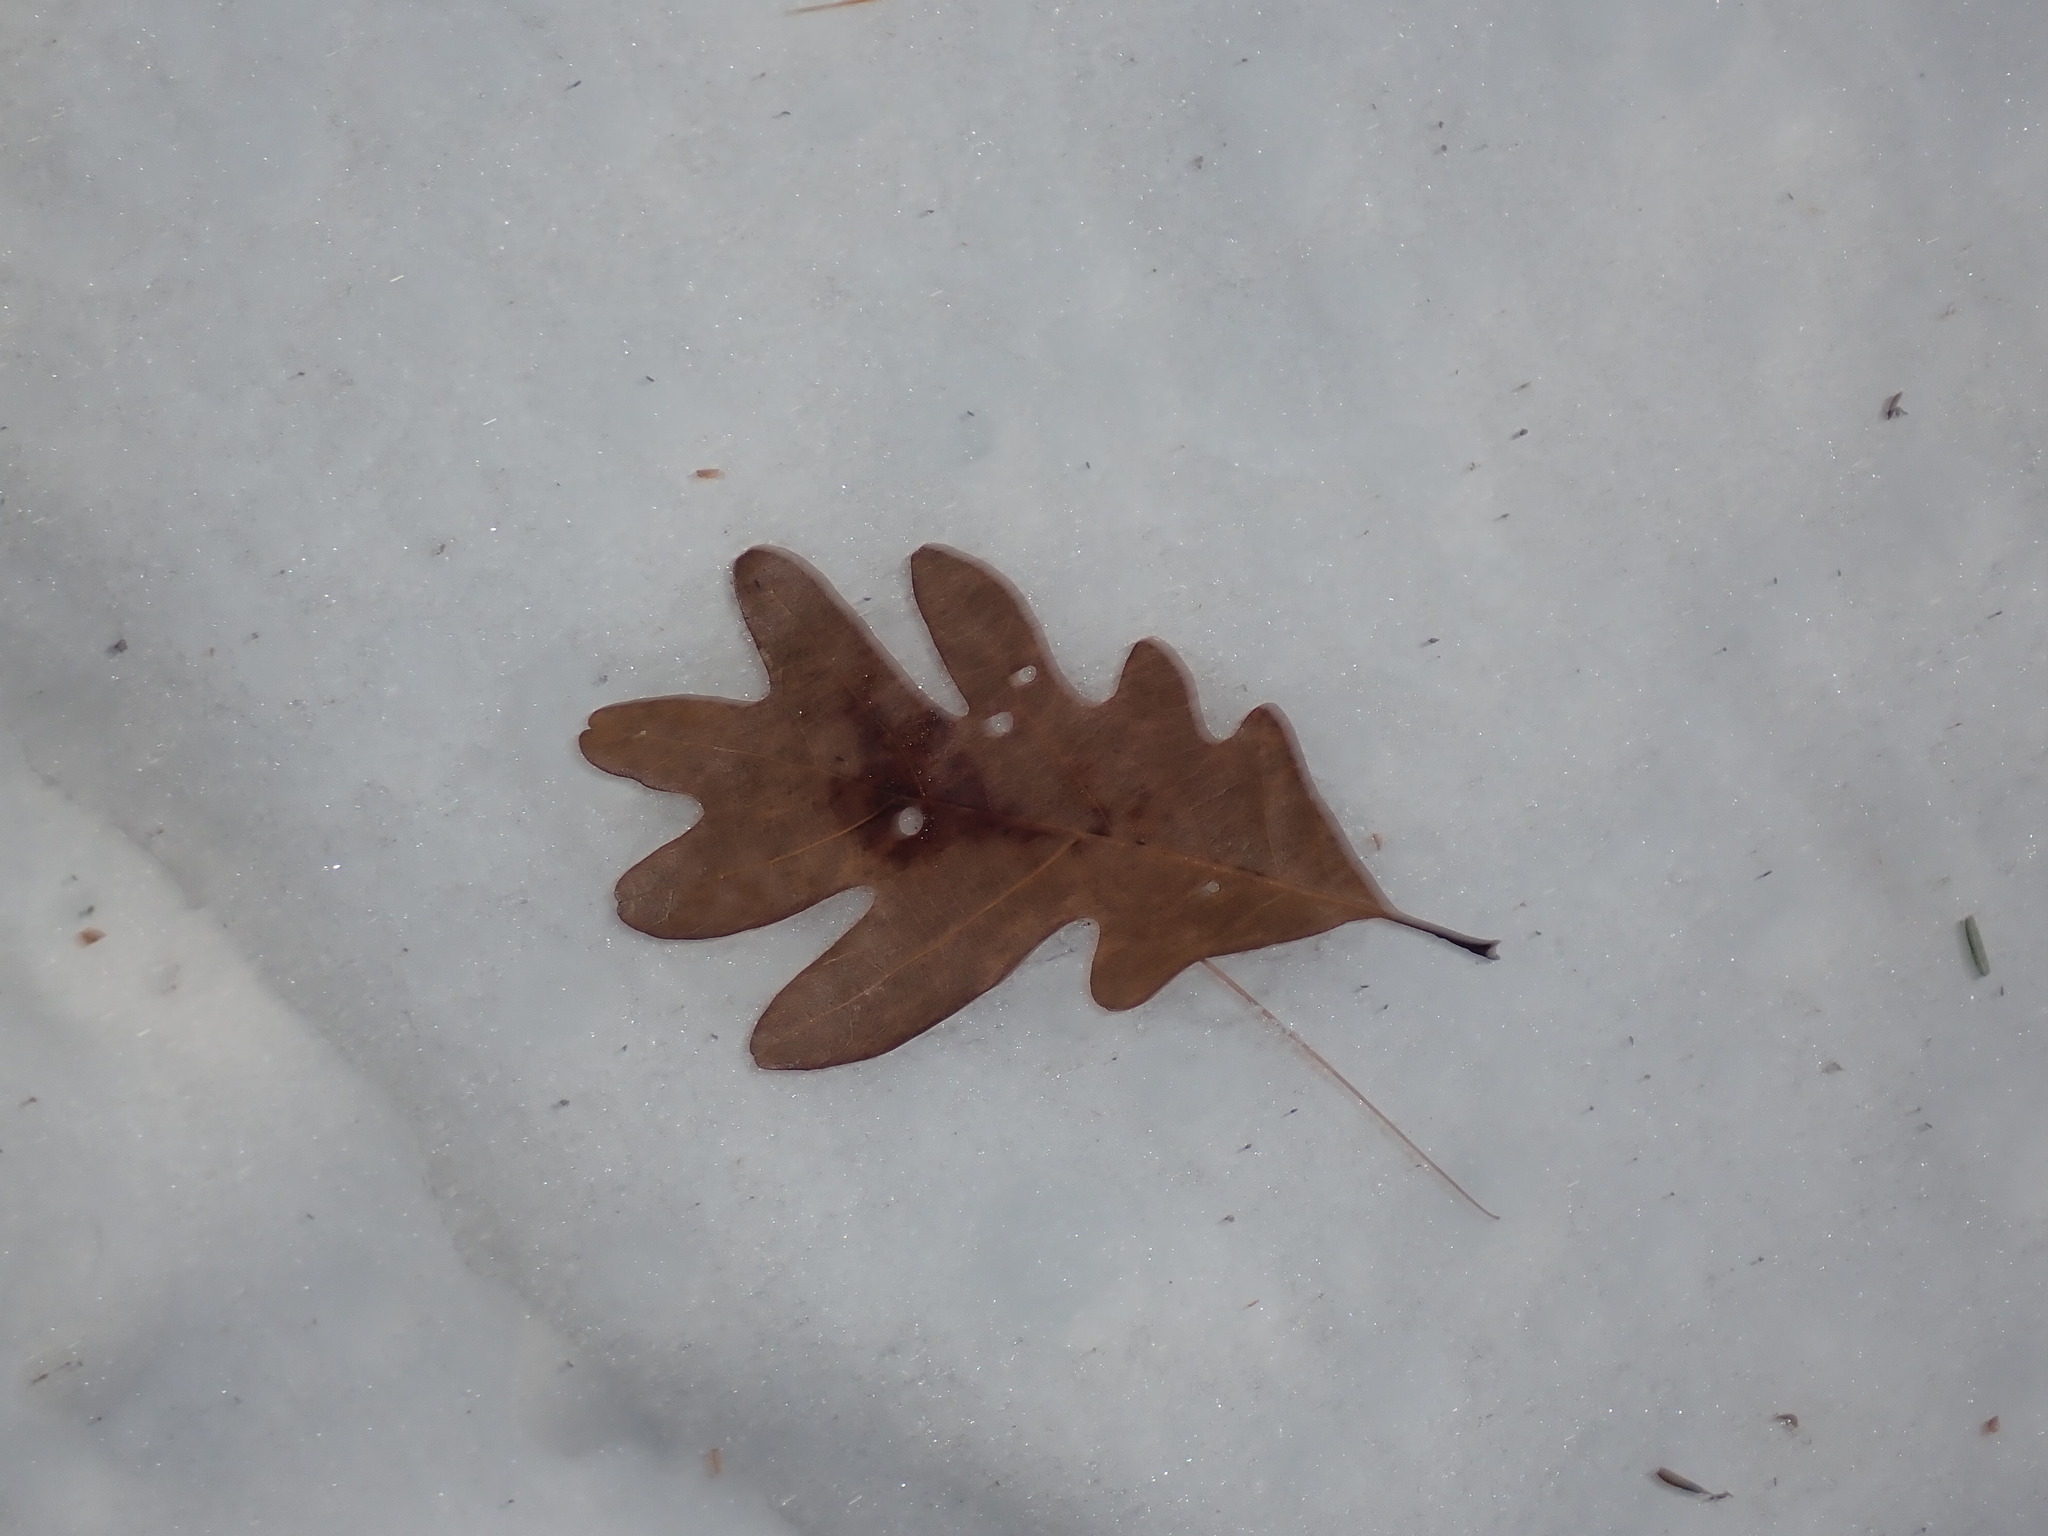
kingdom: Plantae
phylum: Tracheophyta
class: Magnoliopsida
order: Fagales
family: Fagaceae
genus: Quercus
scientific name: Quercus alba
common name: White oak
